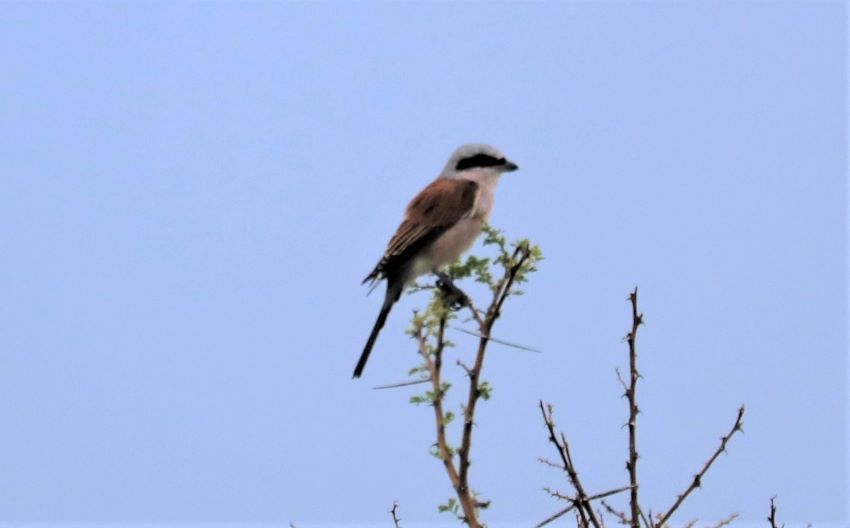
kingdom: Animalia
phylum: Chordata
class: Aves
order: Passeriformes
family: Laniidae
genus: Lanius
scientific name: Lanius collurio
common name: Red-backed shrike
